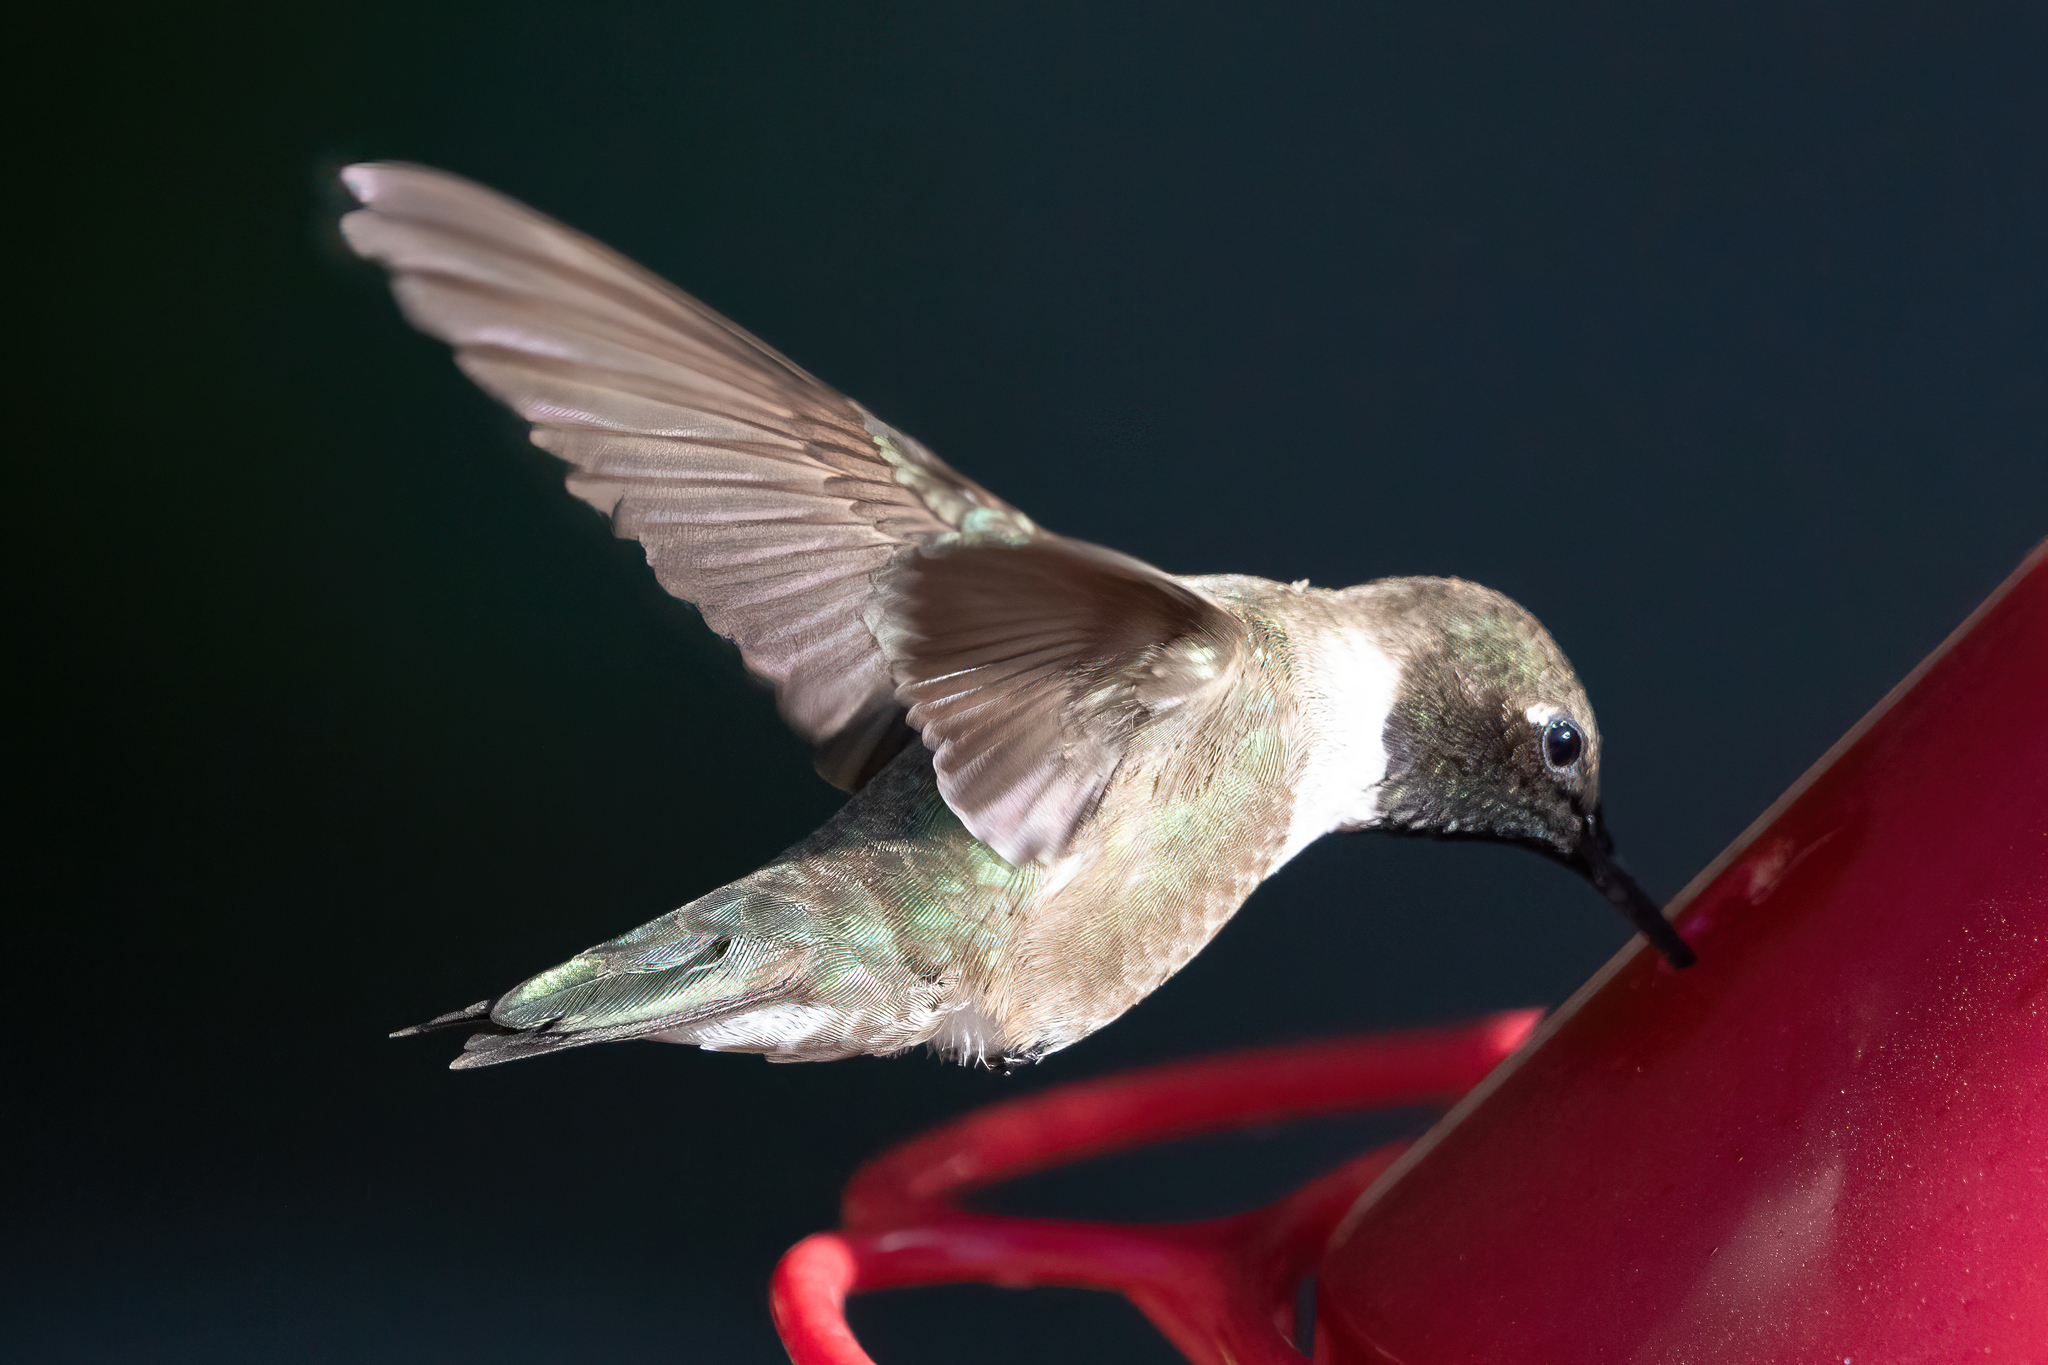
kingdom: Animalia
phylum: Chordata
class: Aves
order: Apodiformes
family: Trochilidae
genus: Archilochus
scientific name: Archilochus alexandri
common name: Black-chinned hummingbird
